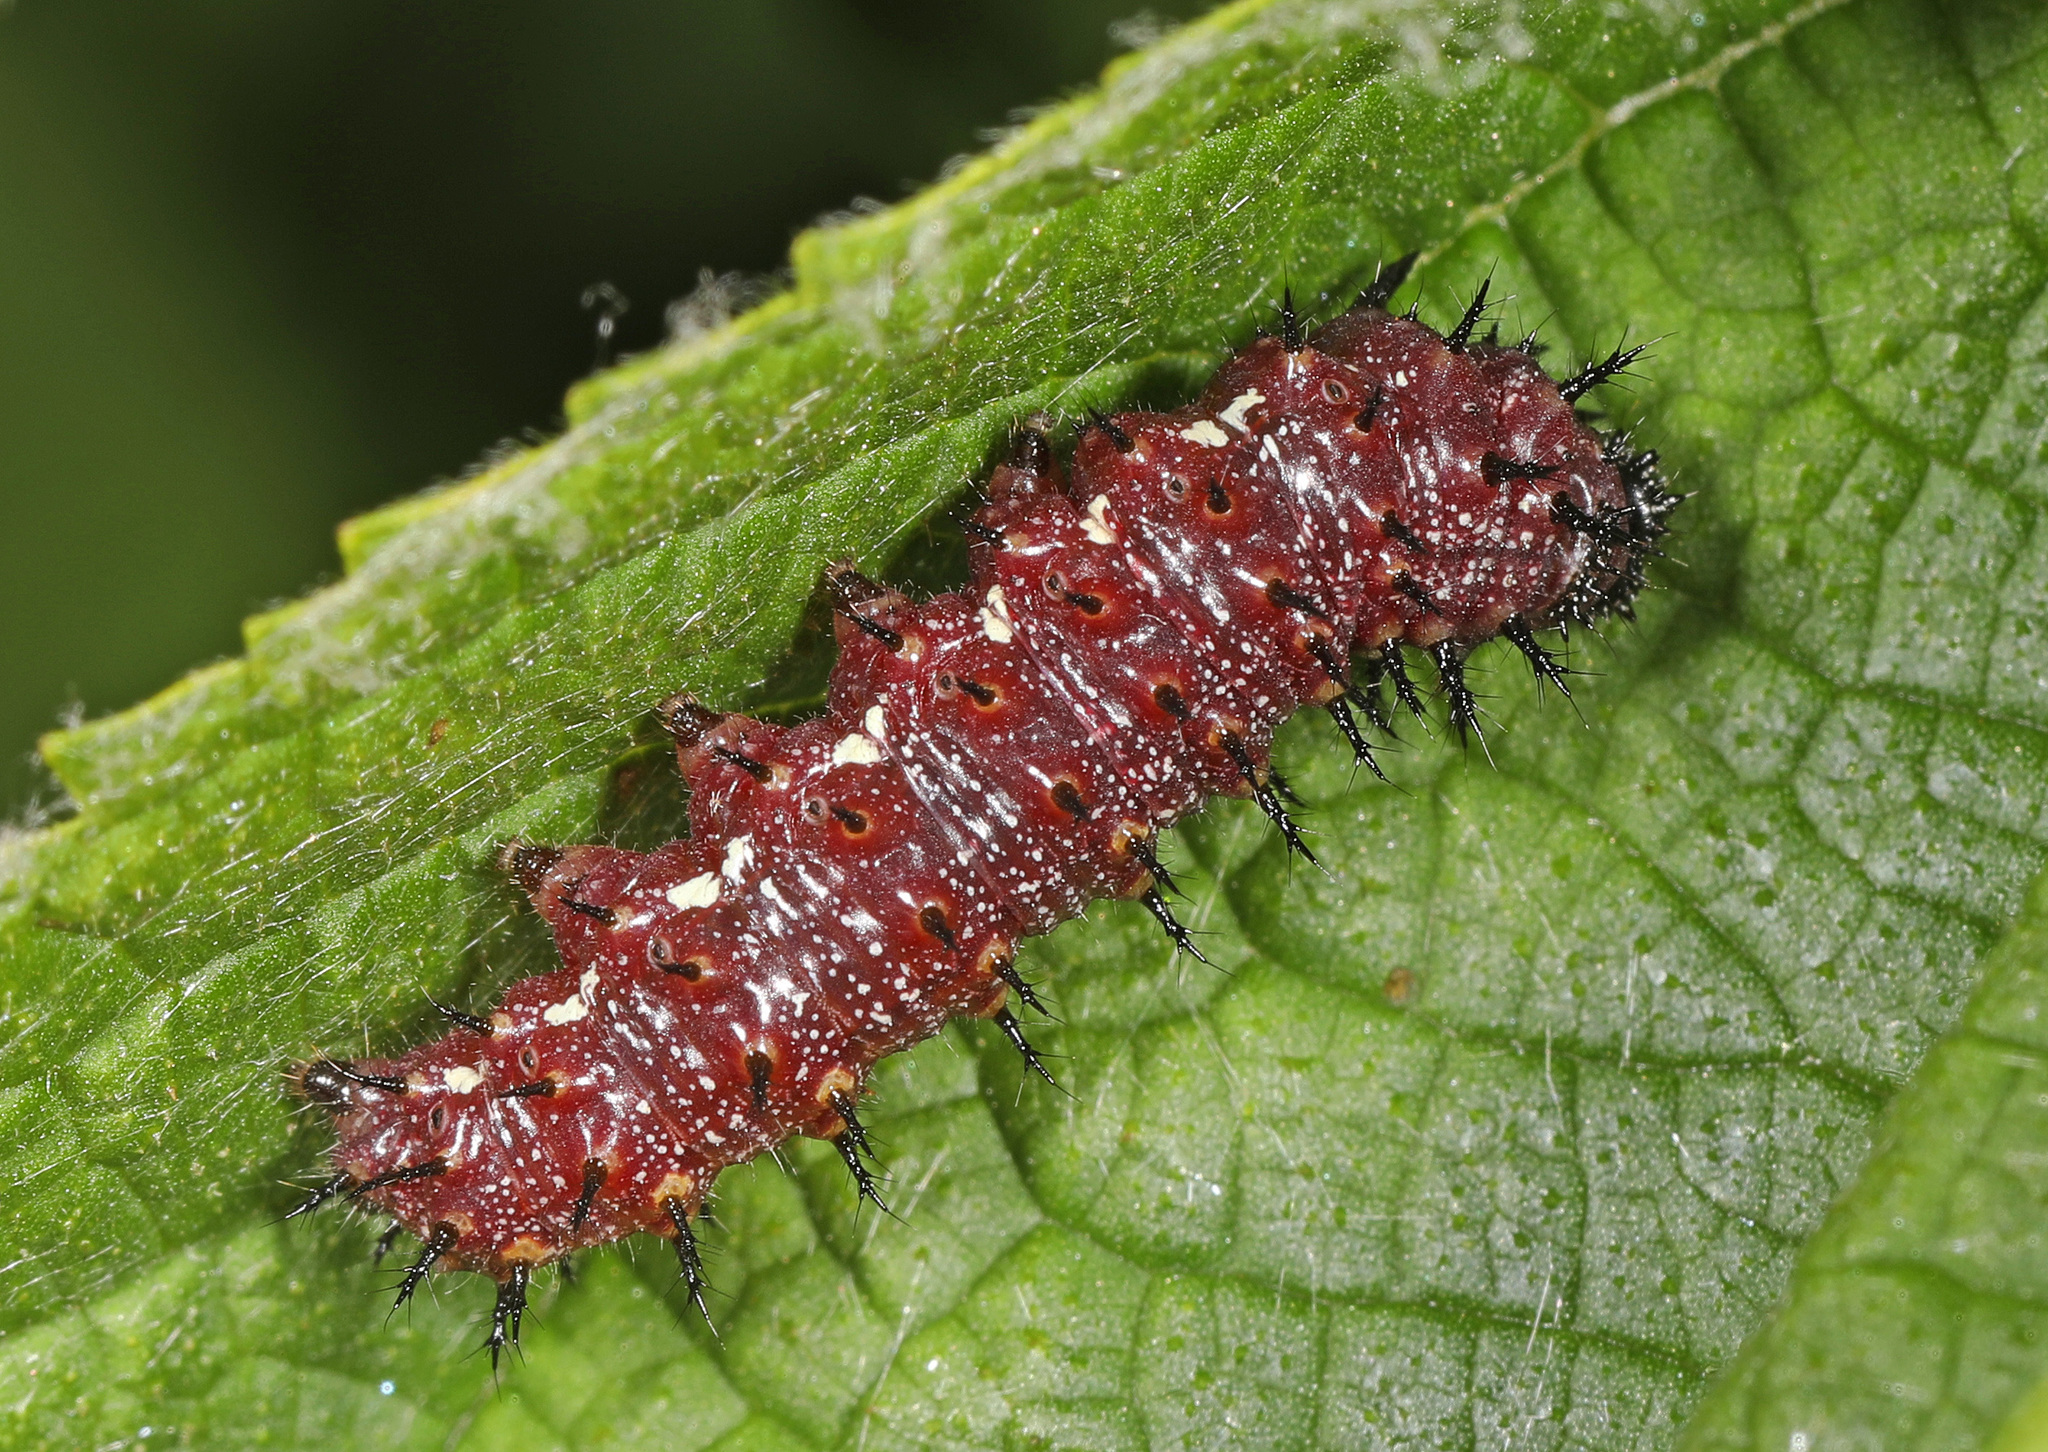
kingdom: Animalia
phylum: Arthropoda
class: Insecta
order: Lepidoptera
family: Nymphalidae
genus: Vanessa
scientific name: Vanessa atalanta
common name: Red admiral
